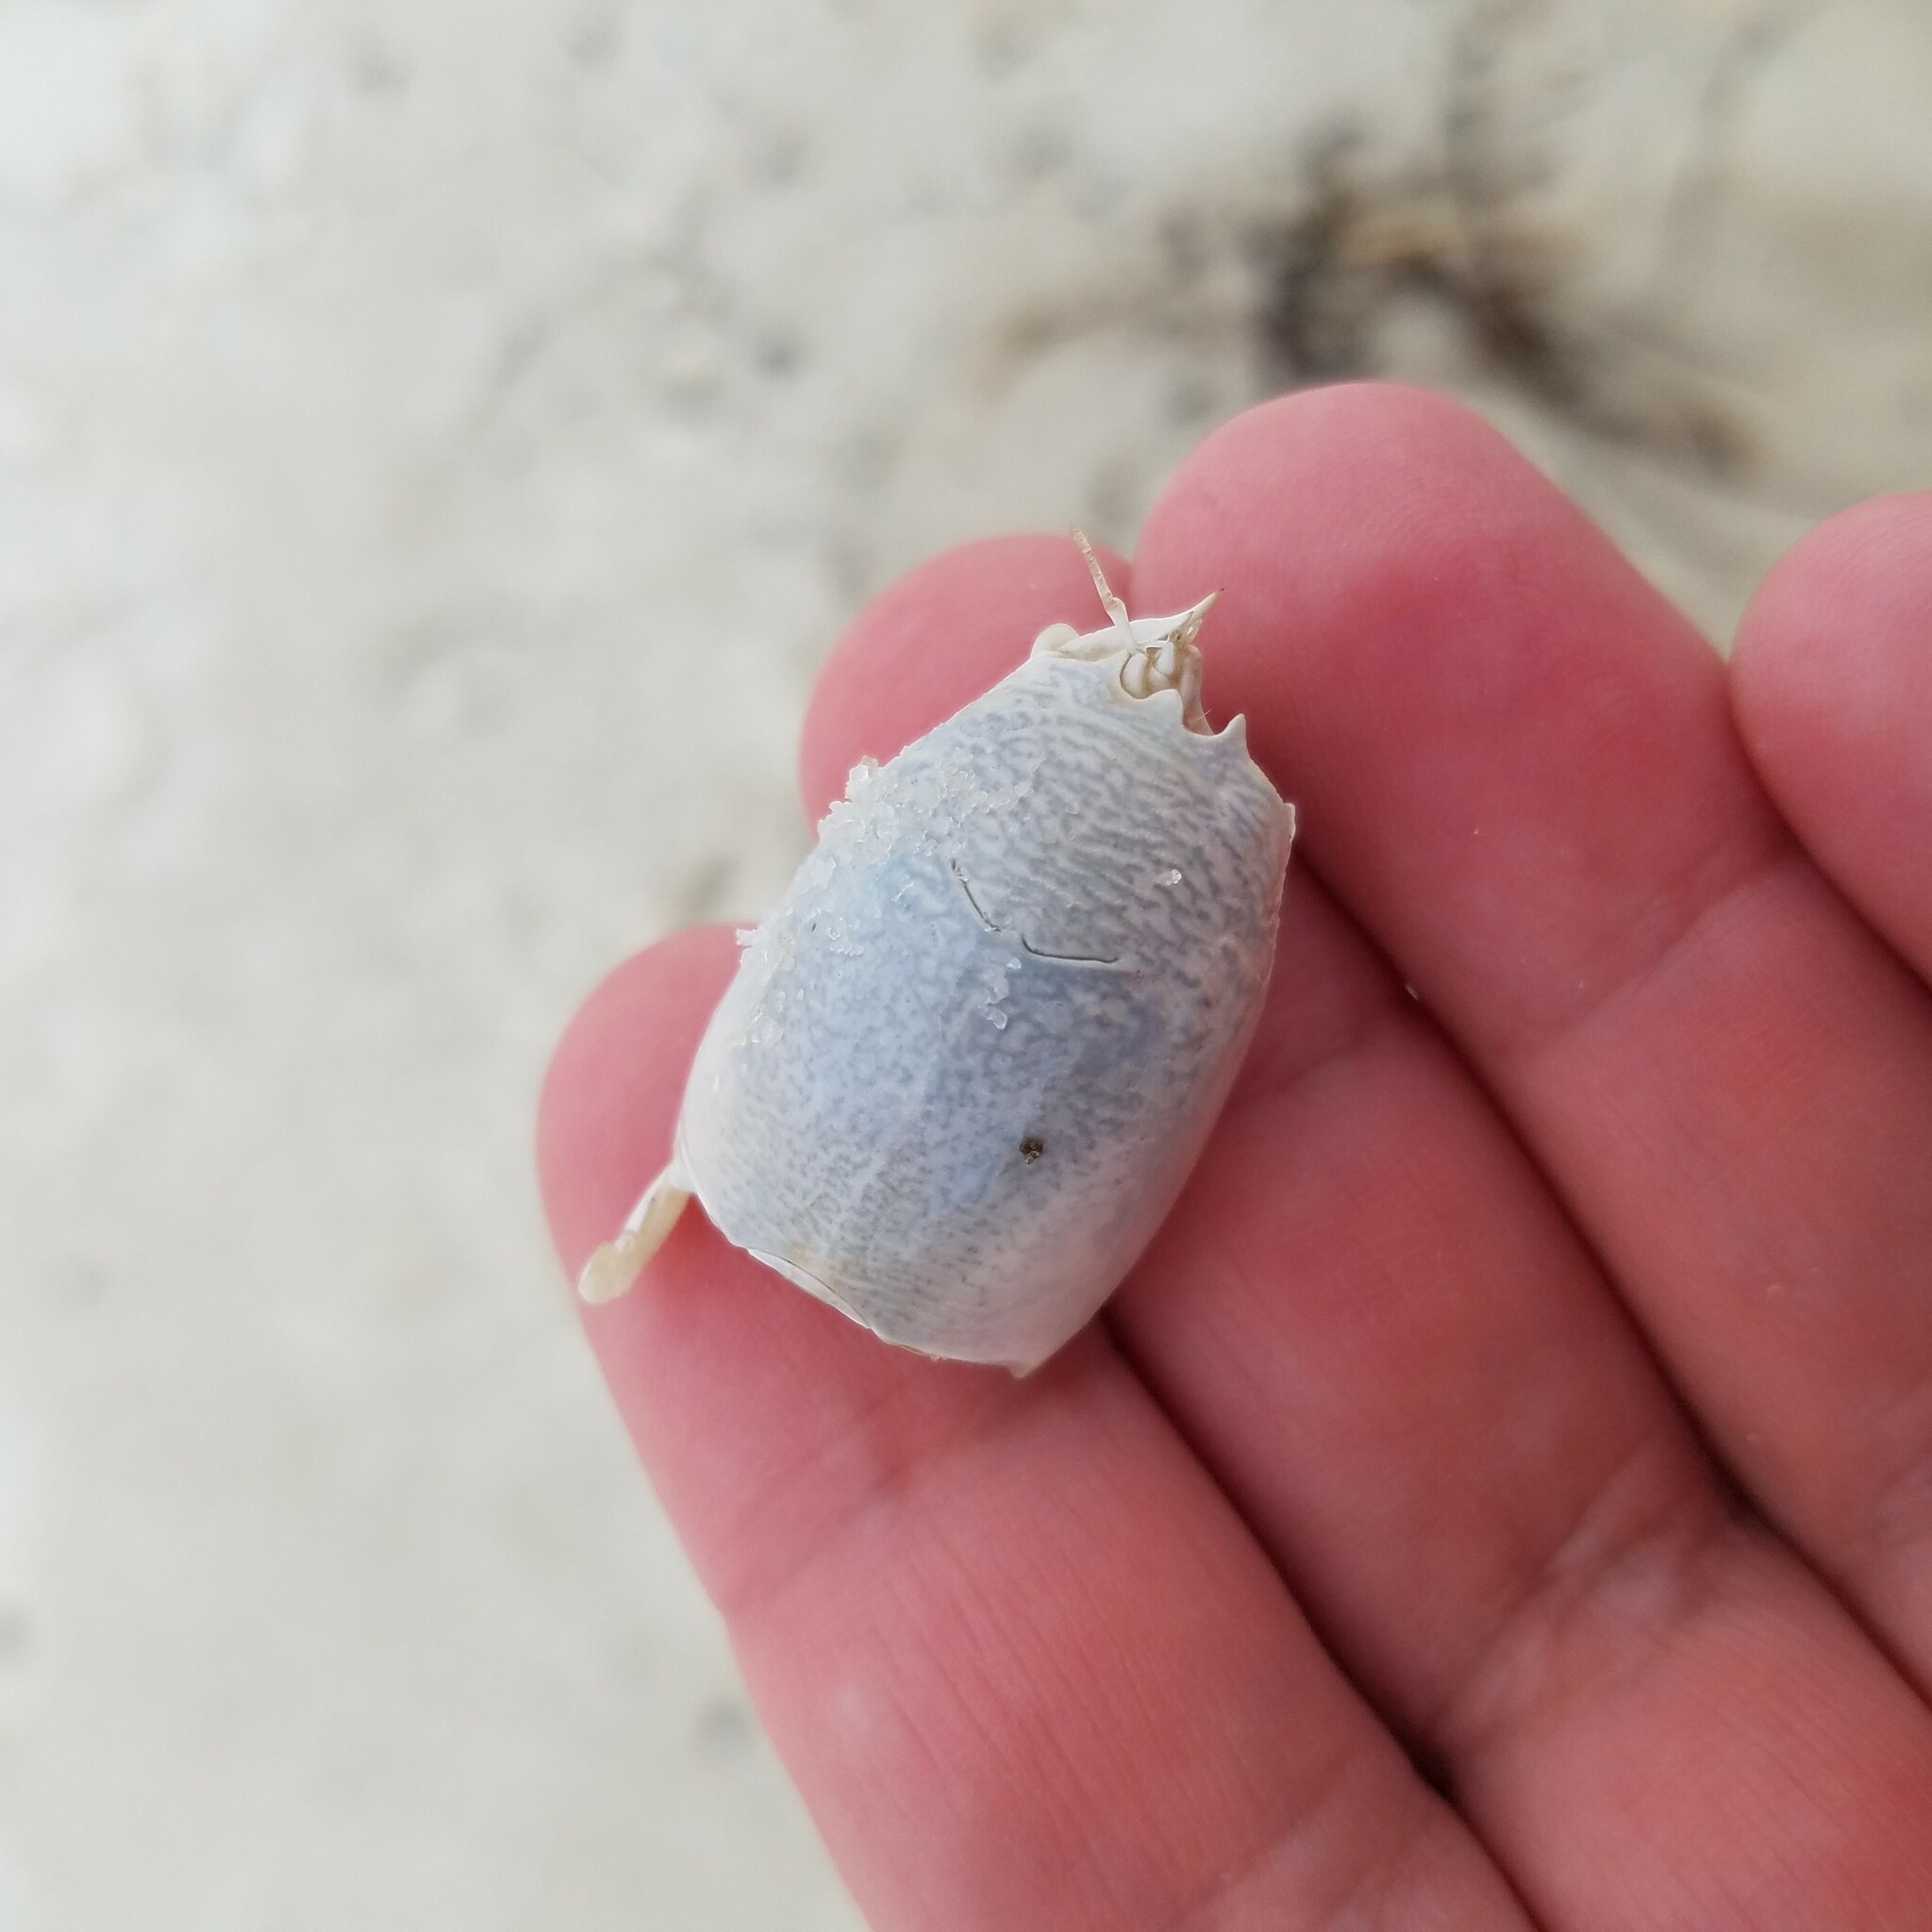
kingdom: Animalia
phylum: Arthropoda
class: Malacostraca
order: Decapoda
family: Hippidae
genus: Emerita
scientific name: Emerita talpoida
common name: Atlantic sand crab
